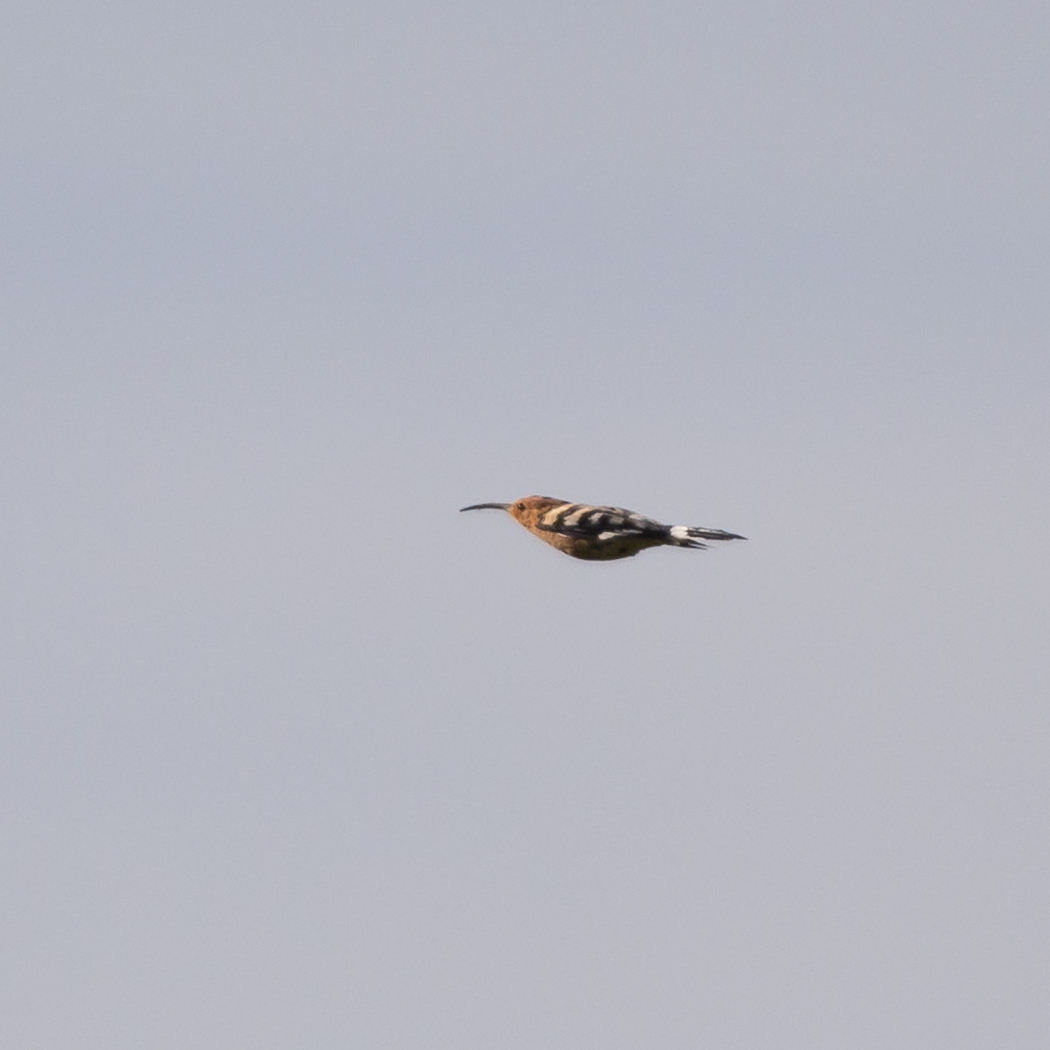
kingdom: Animalia
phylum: Chordata
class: Aves
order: Bucerotiformes
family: Upupidae
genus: Upupa
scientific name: Upupa epops
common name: Eurasian hoopoe
